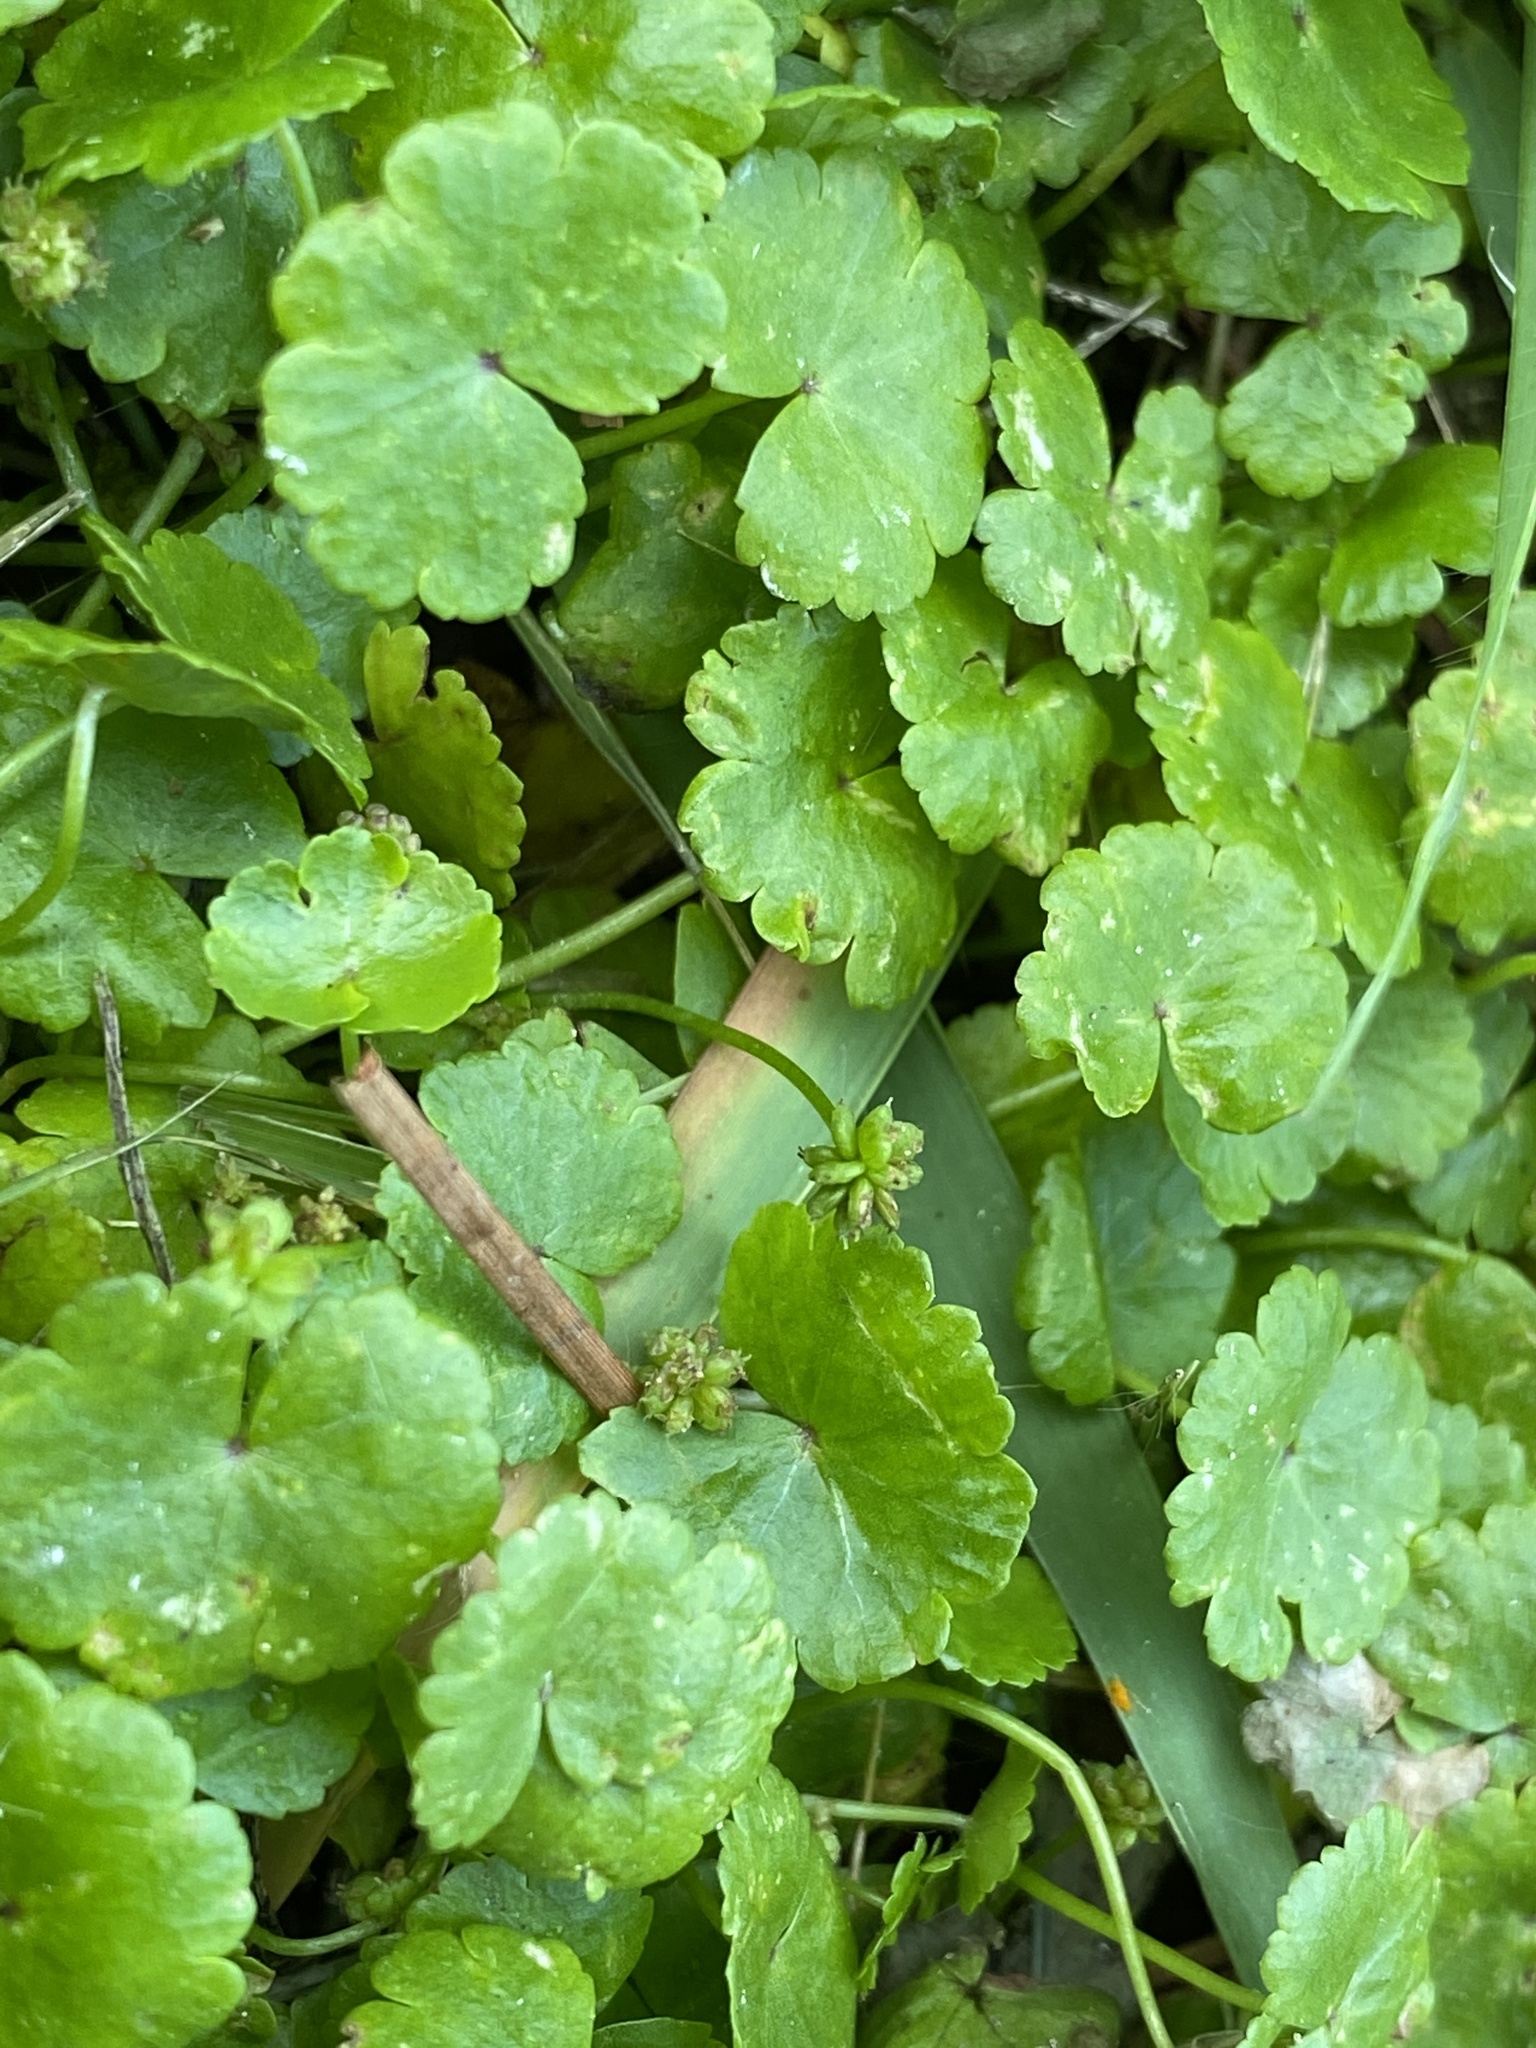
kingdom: Plantae
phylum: Tracheophyta
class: Magnoliopsida
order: Apiales
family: Araliaceae
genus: Hydrocotyle
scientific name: Hydrocotyle sibthorpioides
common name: Lawn marshpennywort
